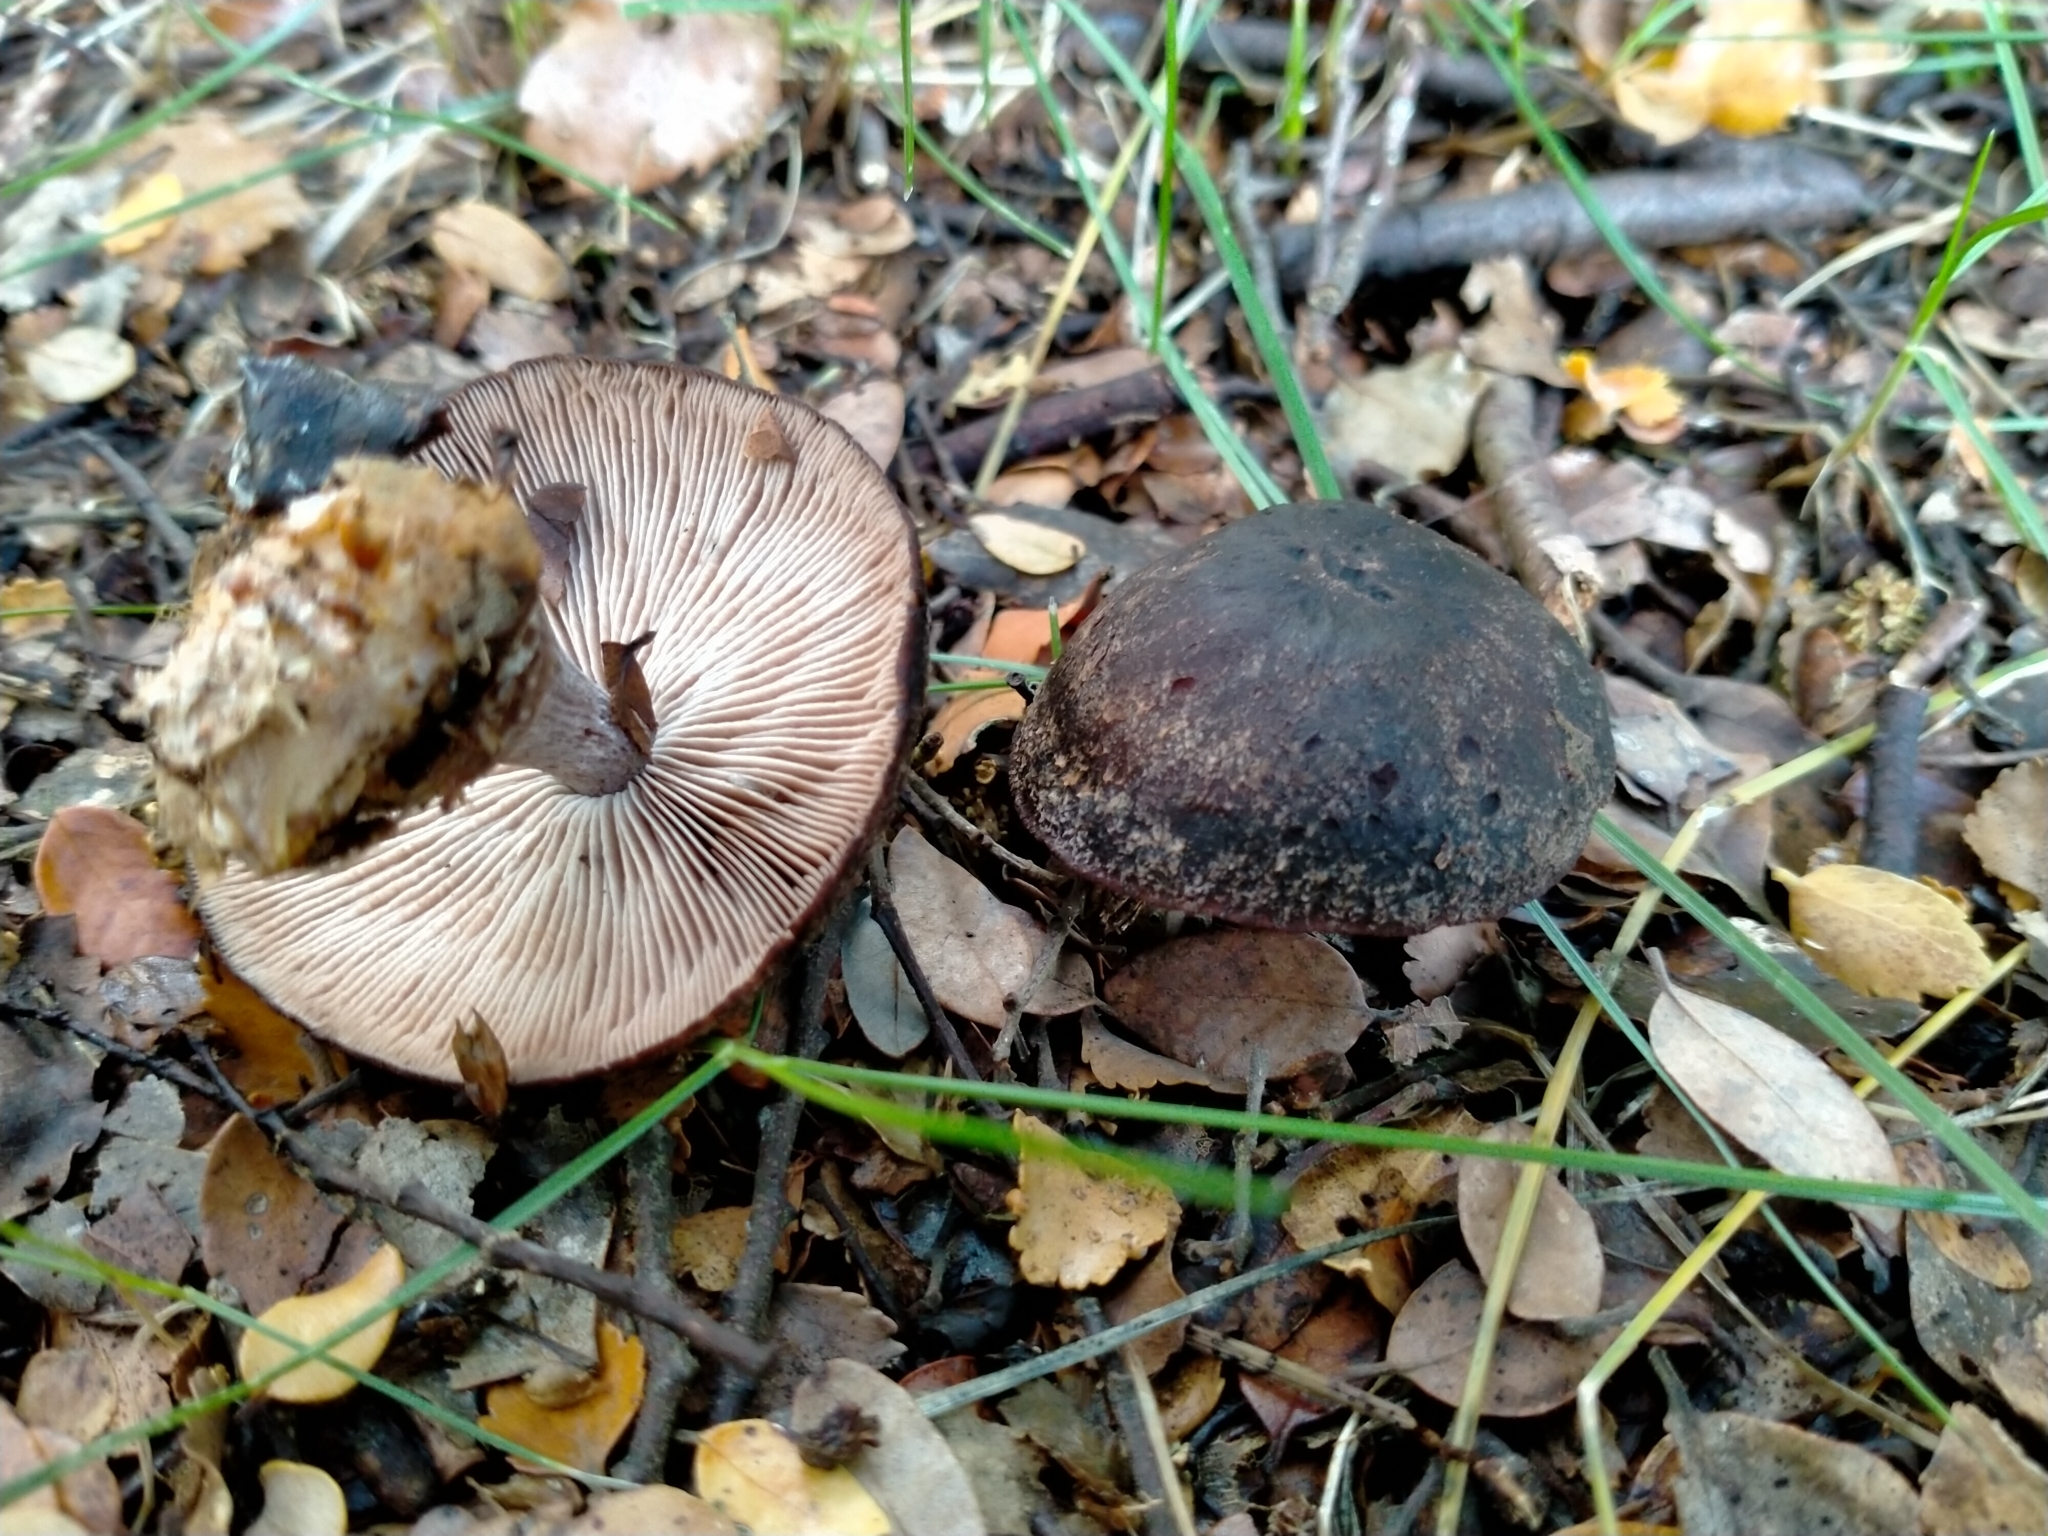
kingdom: Fungi
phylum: Basidiomycota
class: Agaricomycetes
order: Agaricales
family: Omphalotaceae
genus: Rhodocollybia
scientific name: Rhodocollybia purpurata
